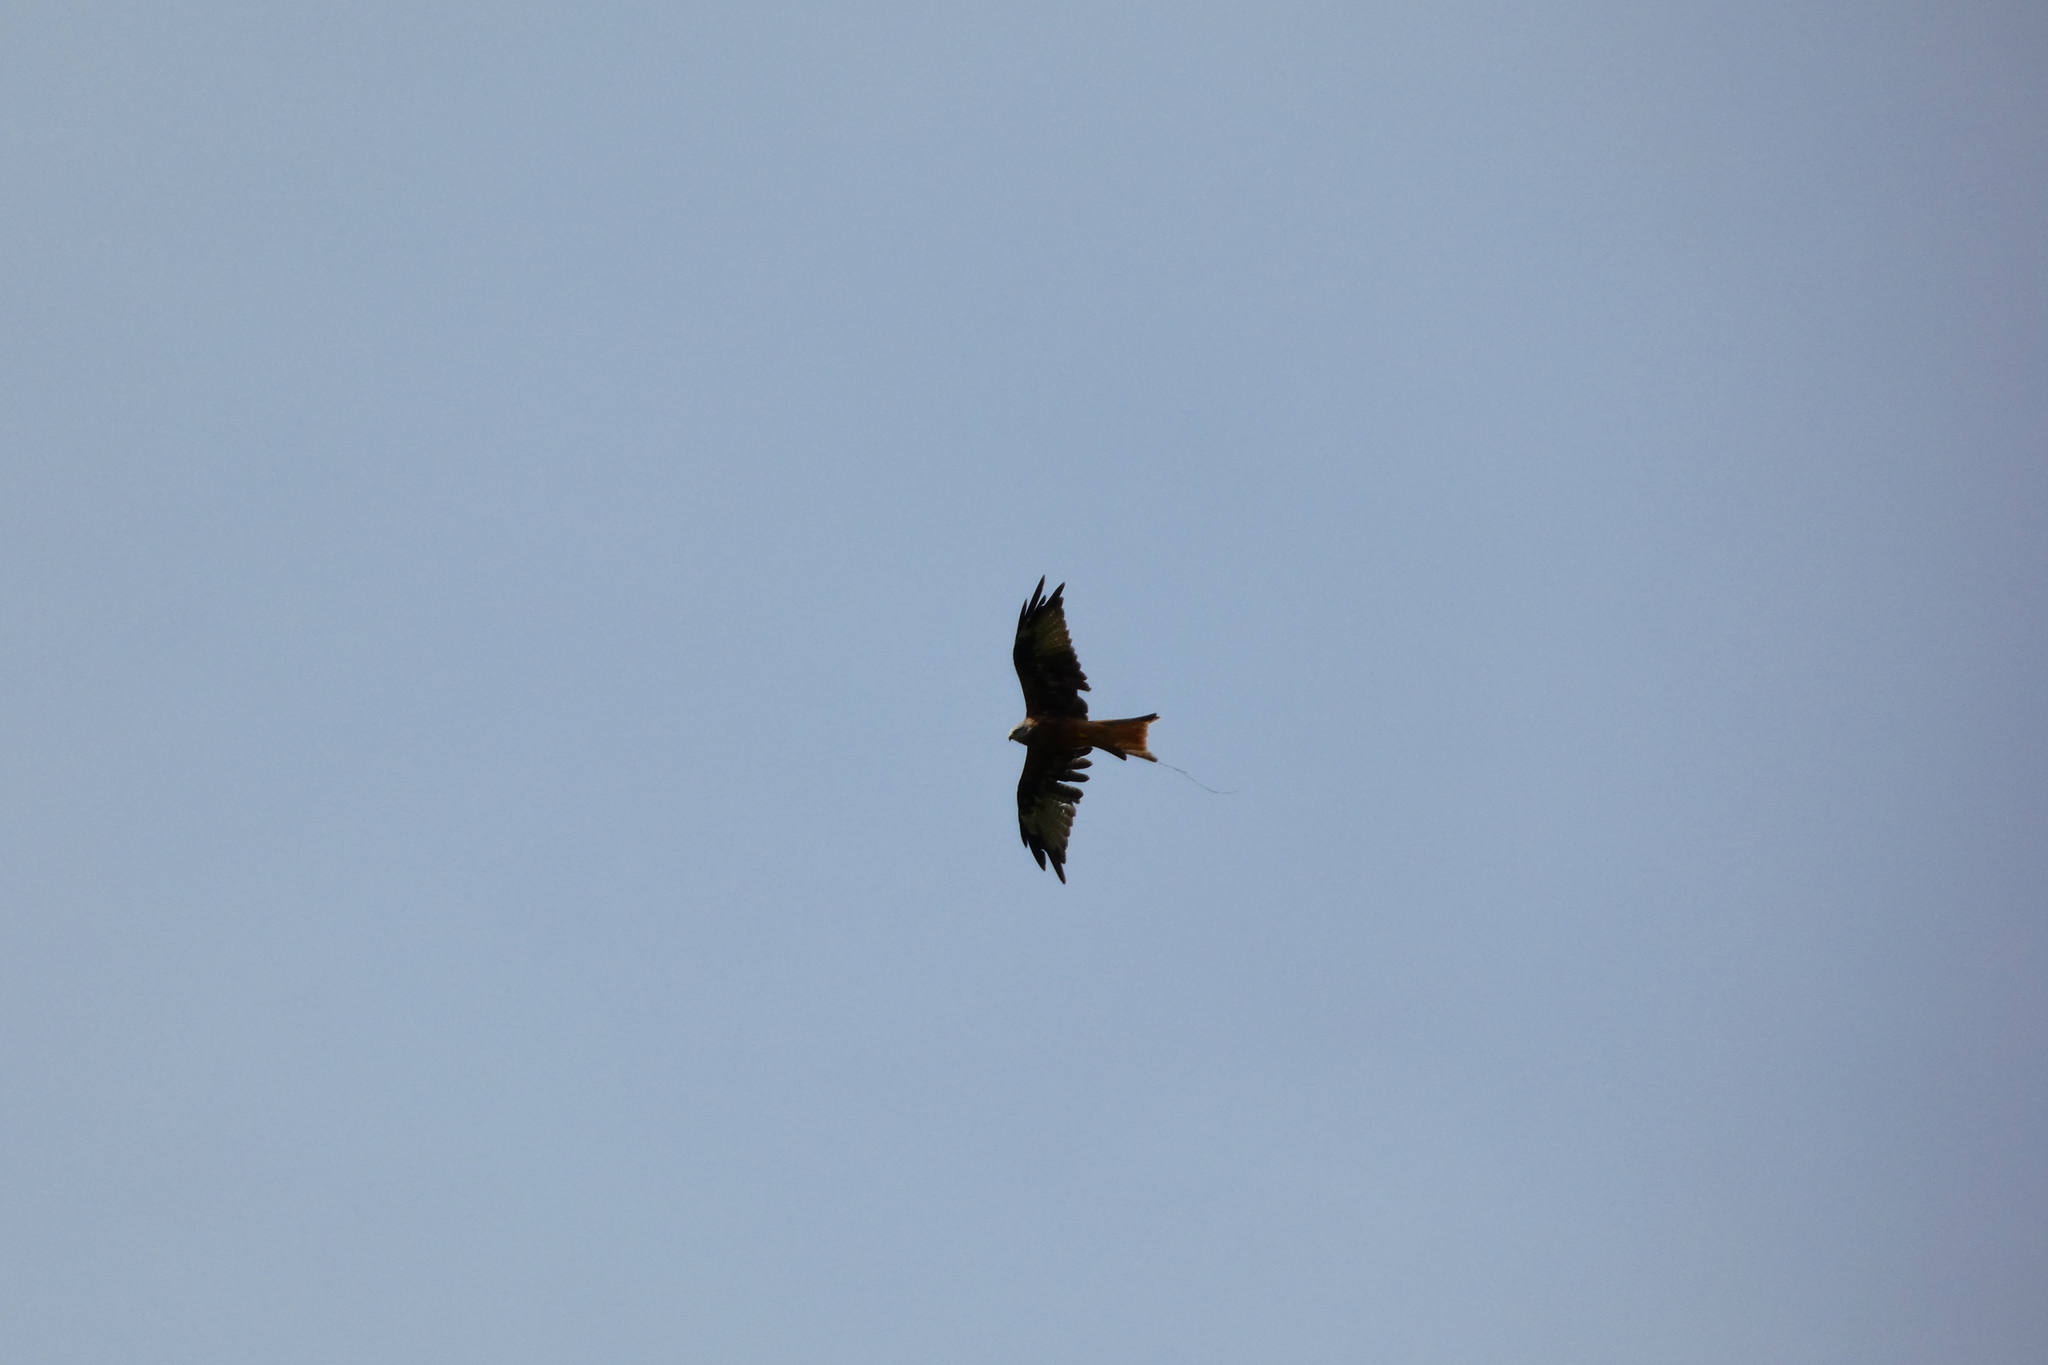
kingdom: Animalia
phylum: Chordata
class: Aves
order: Accipitriformes
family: Accipitridae
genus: Milvus
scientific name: Milvus milvus
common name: Red kite
